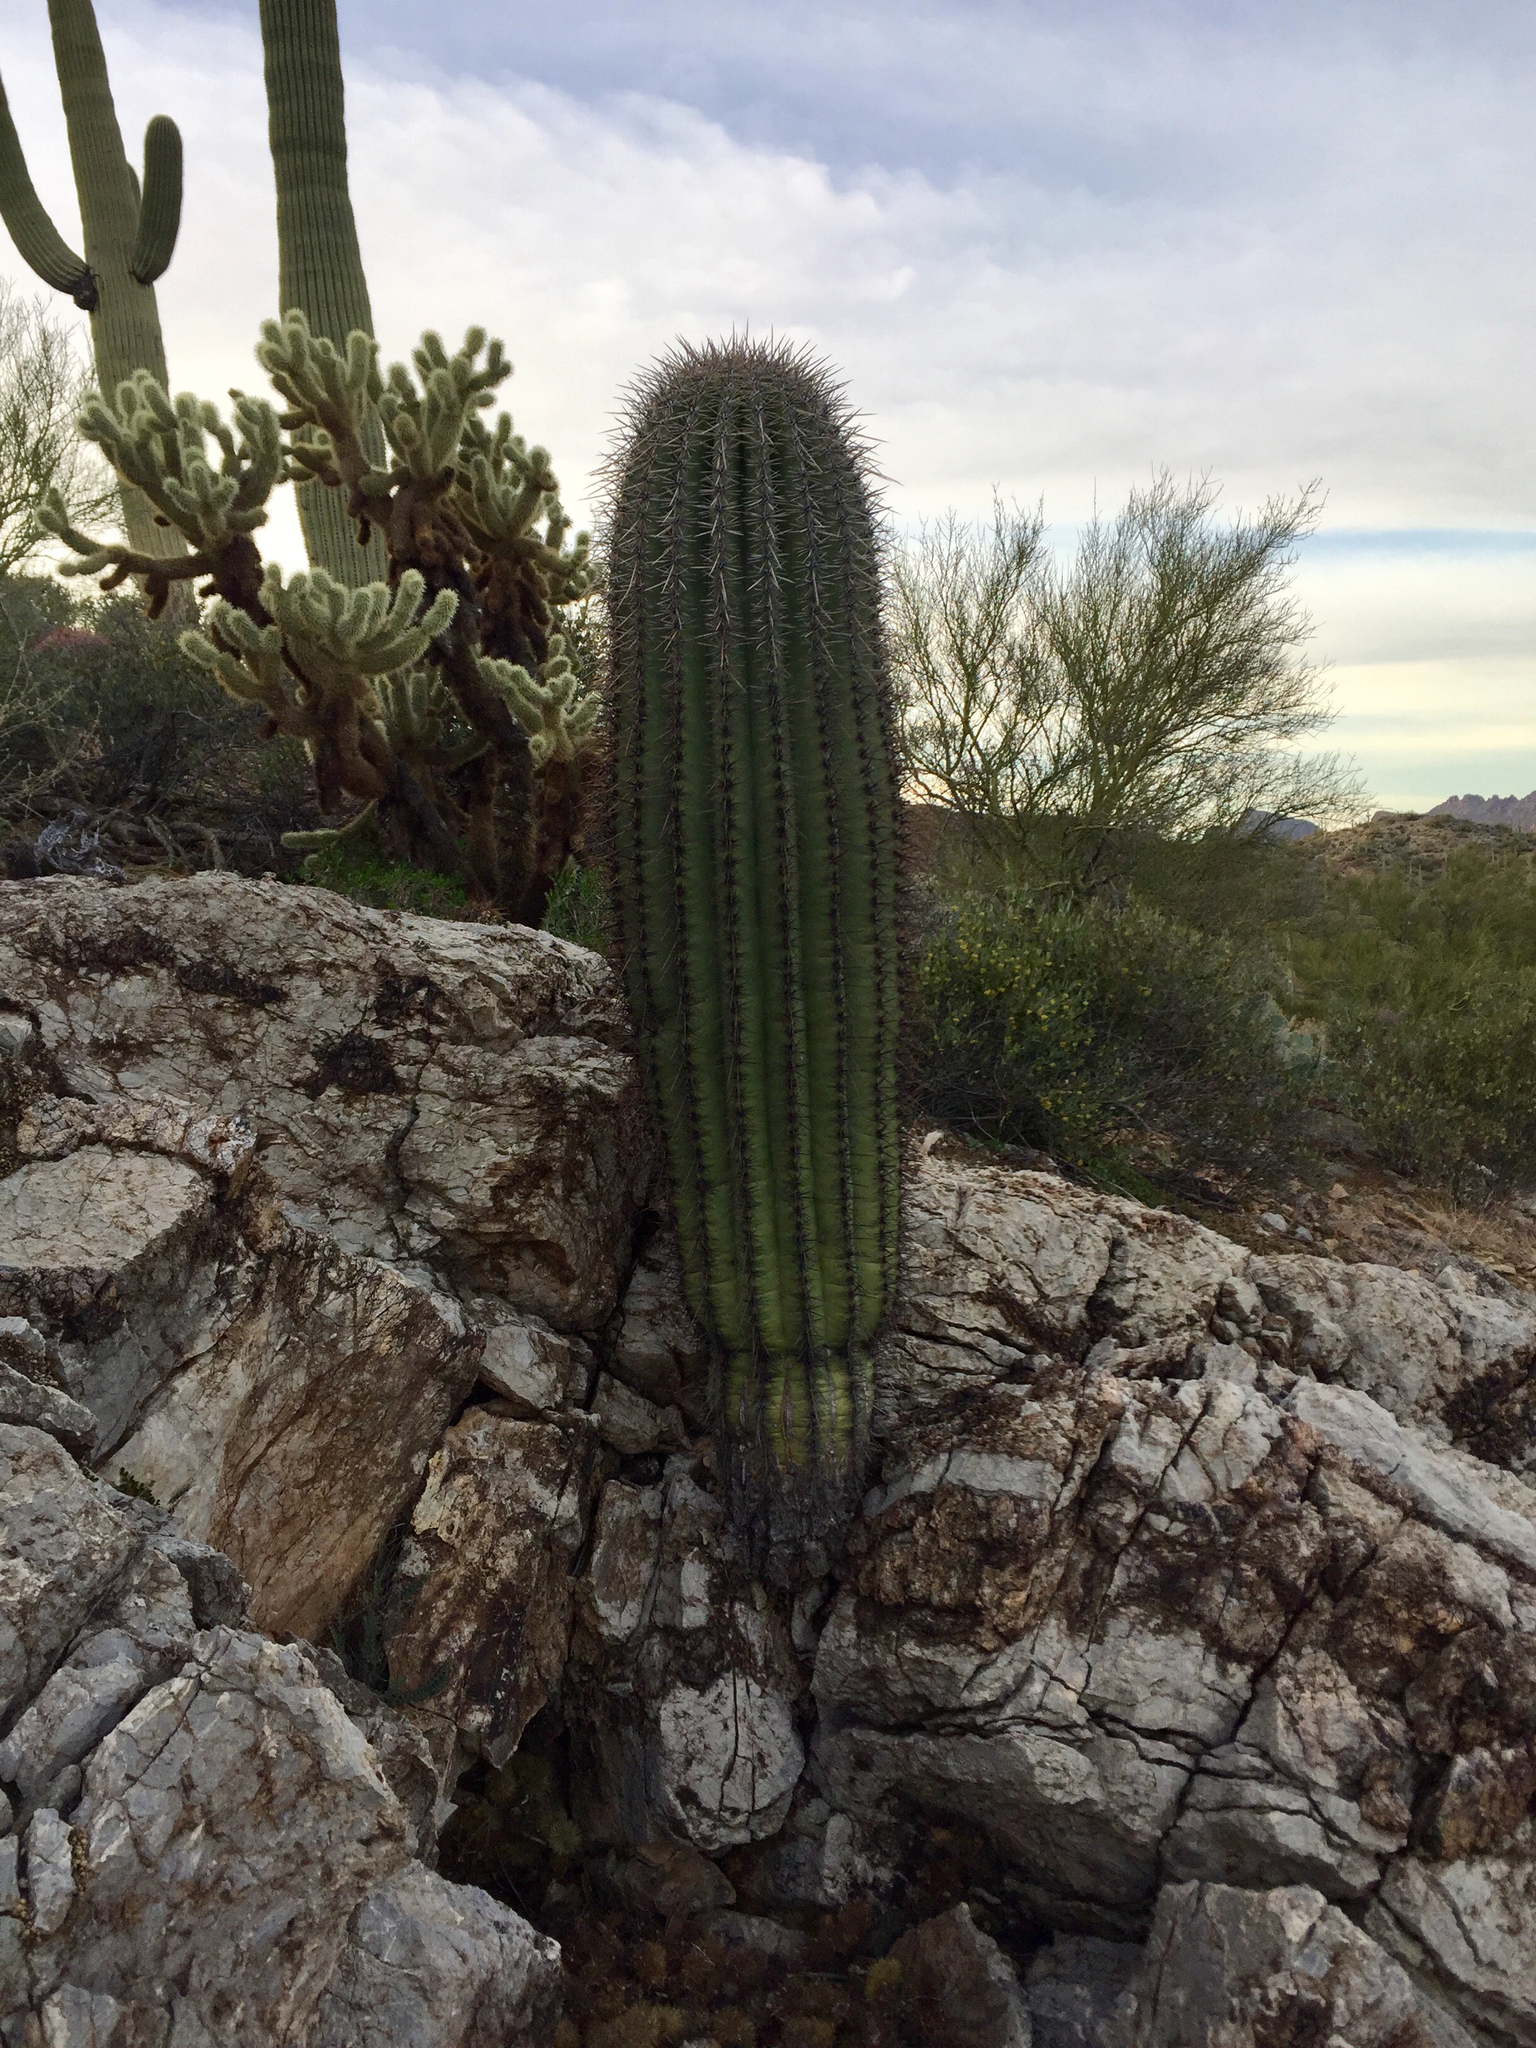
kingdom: Plantae
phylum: Tracheophyta
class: Magnoliopsida
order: Caryophyllales
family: Cactaceae
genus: Carnegiea
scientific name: Carnegiea gigantea
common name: Saguaro
